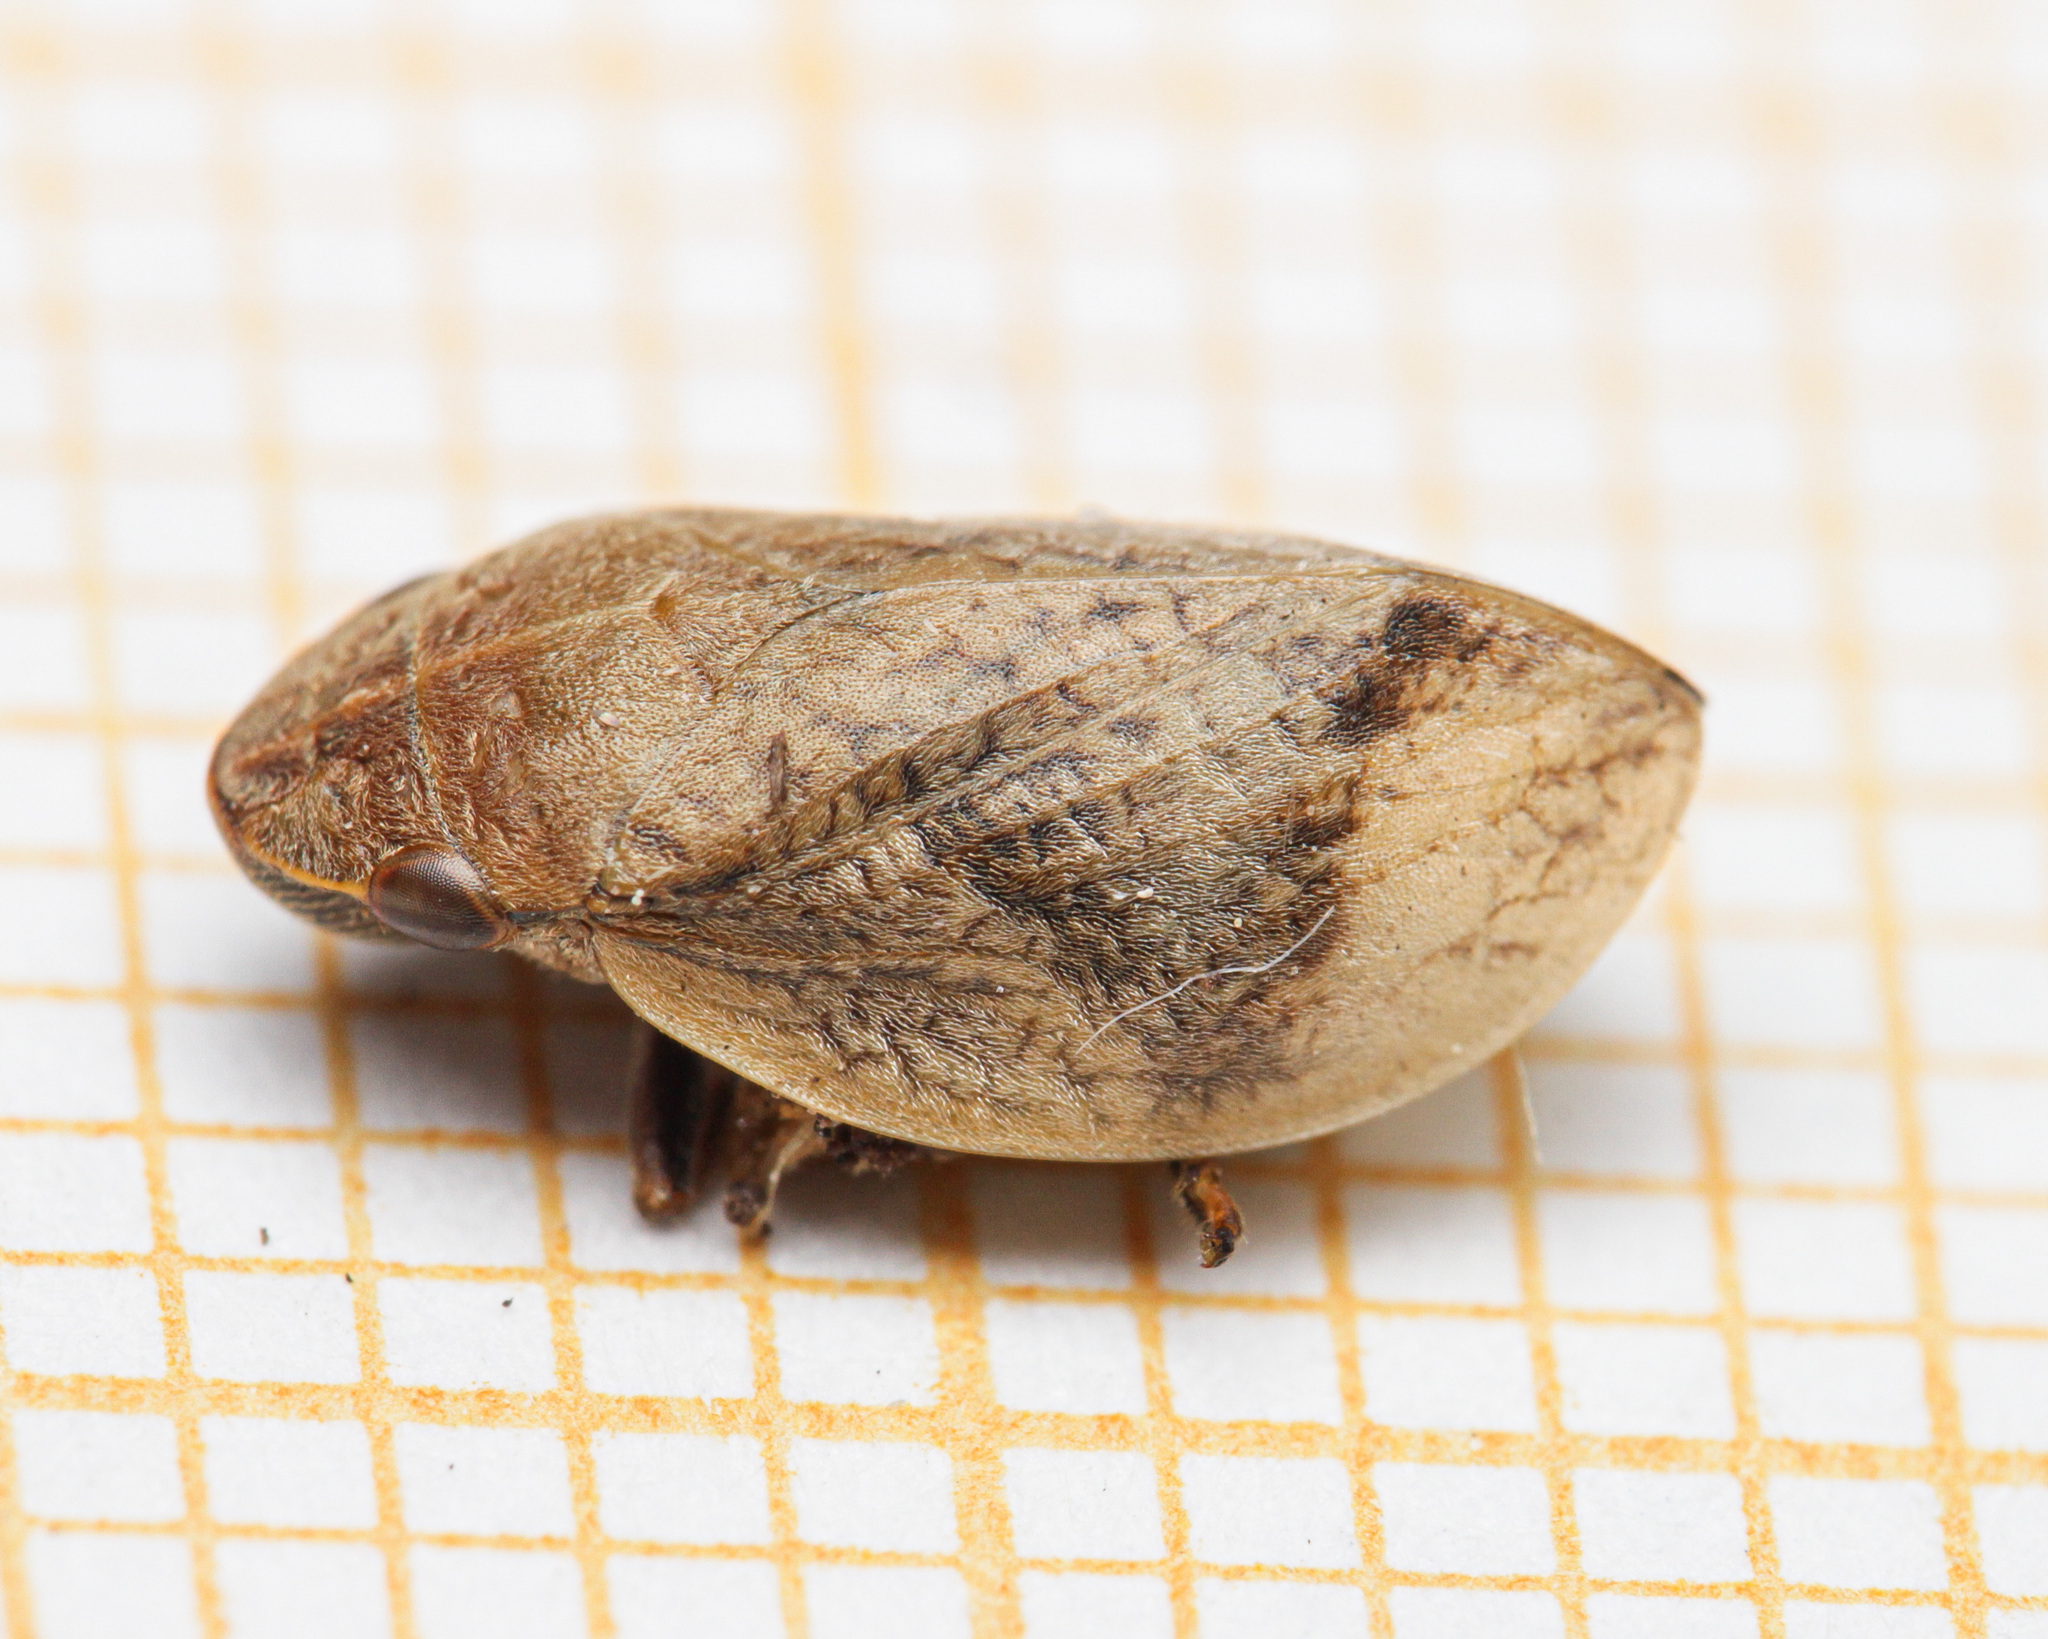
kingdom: Animalia
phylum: Arthropoda
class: Insecta
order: Hemiptera
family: Aphrophoridae
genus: Lepyronia
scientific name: Lepyronia coleoptrata
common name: Leafhopper
